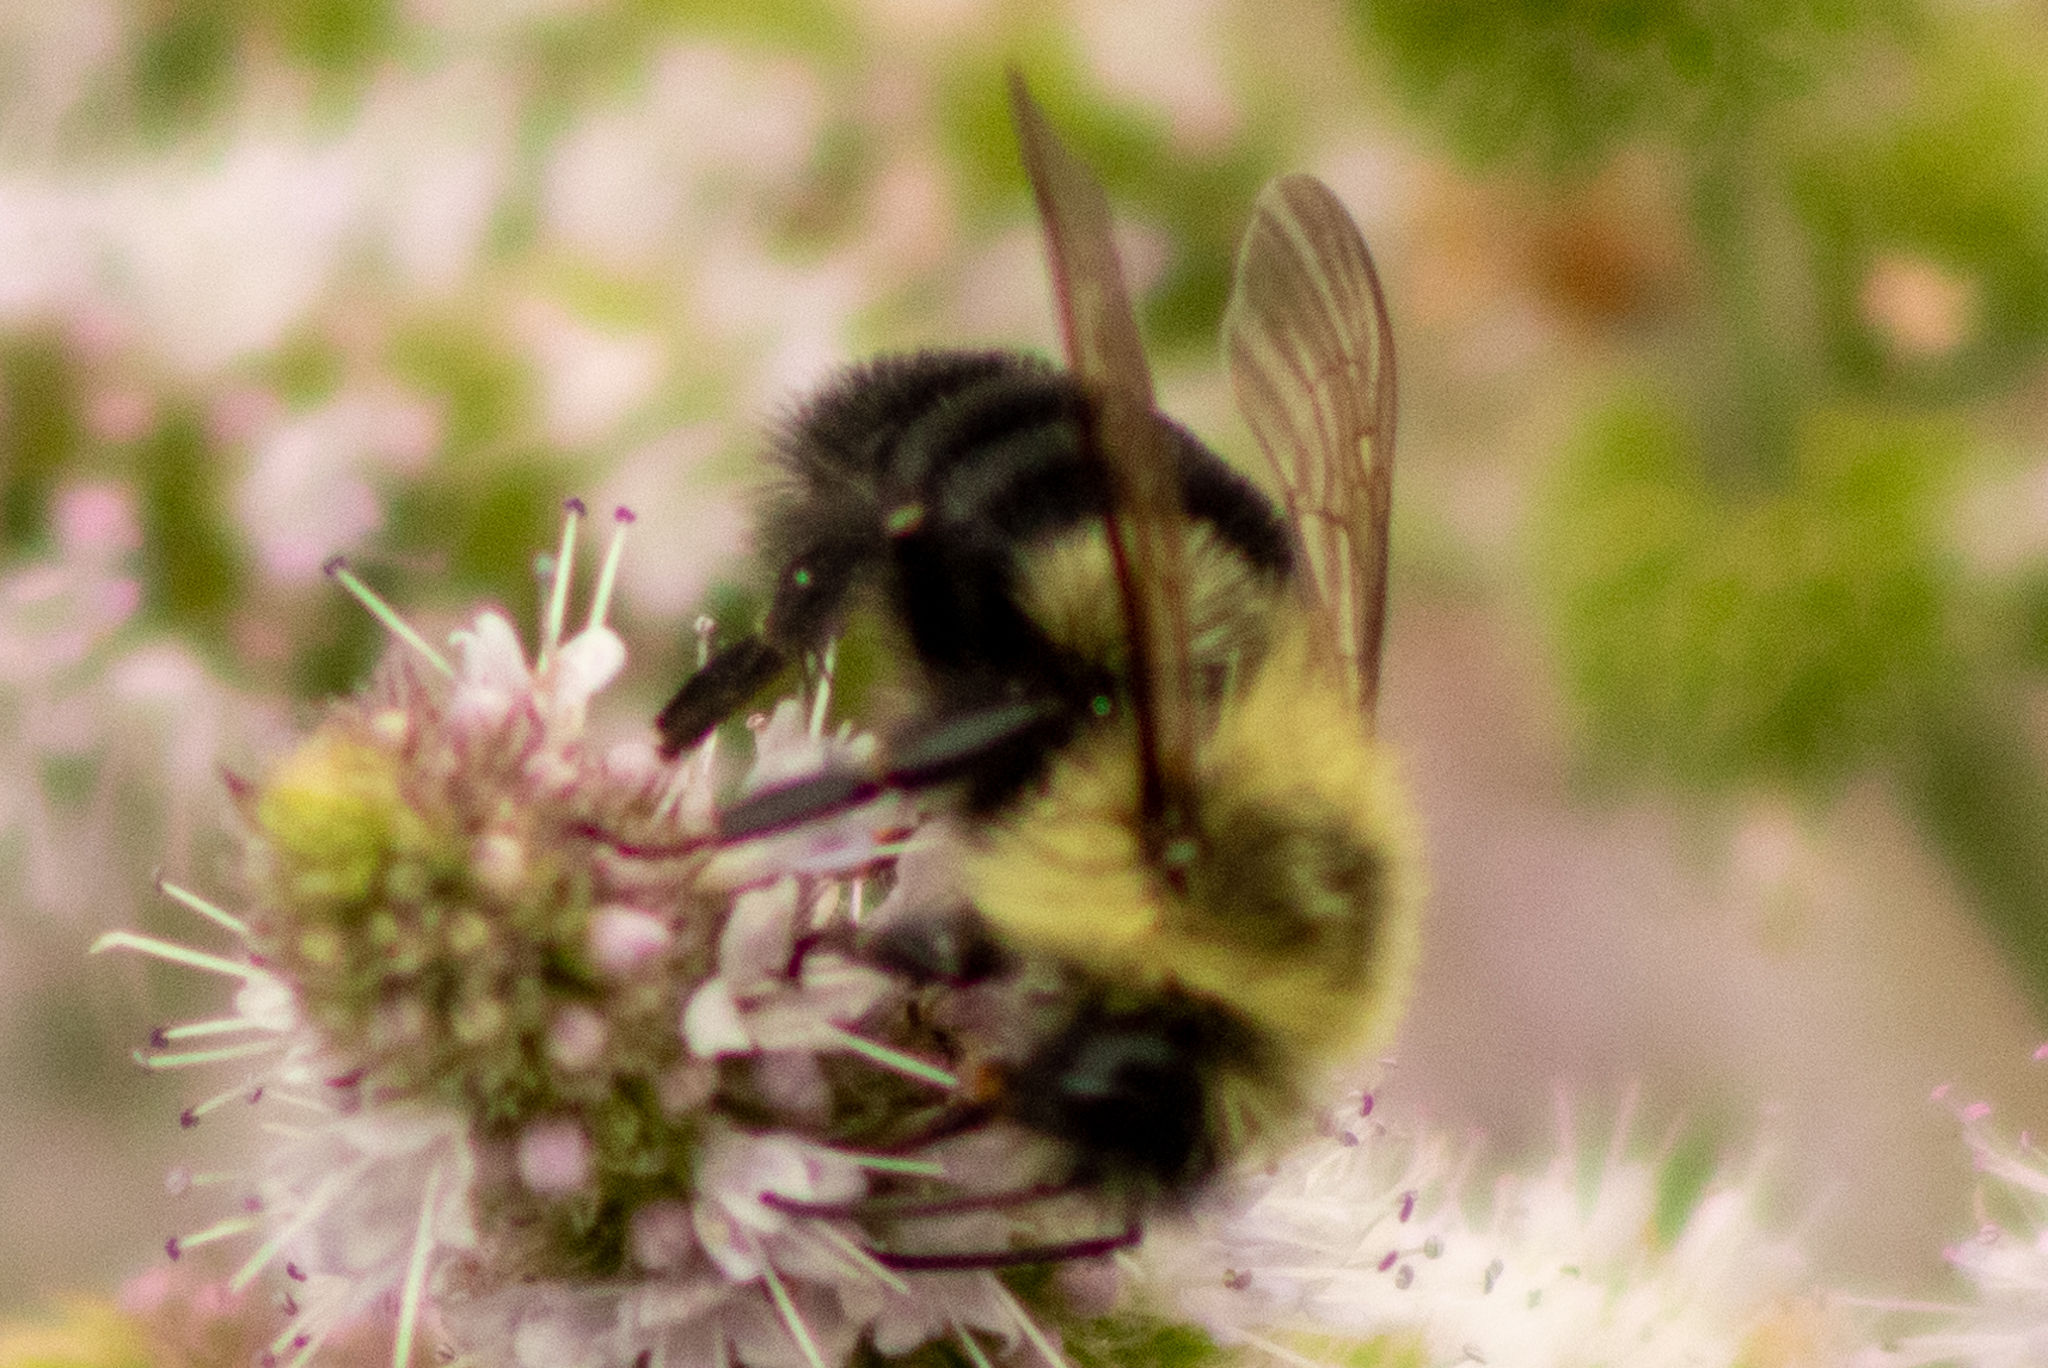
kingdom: Animalia
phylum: Arthropoda
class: Insecta
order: Hymenoptera
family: Apidae
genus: Bombus
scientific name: Bombus impatiens
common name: Common eastern bumble bee
